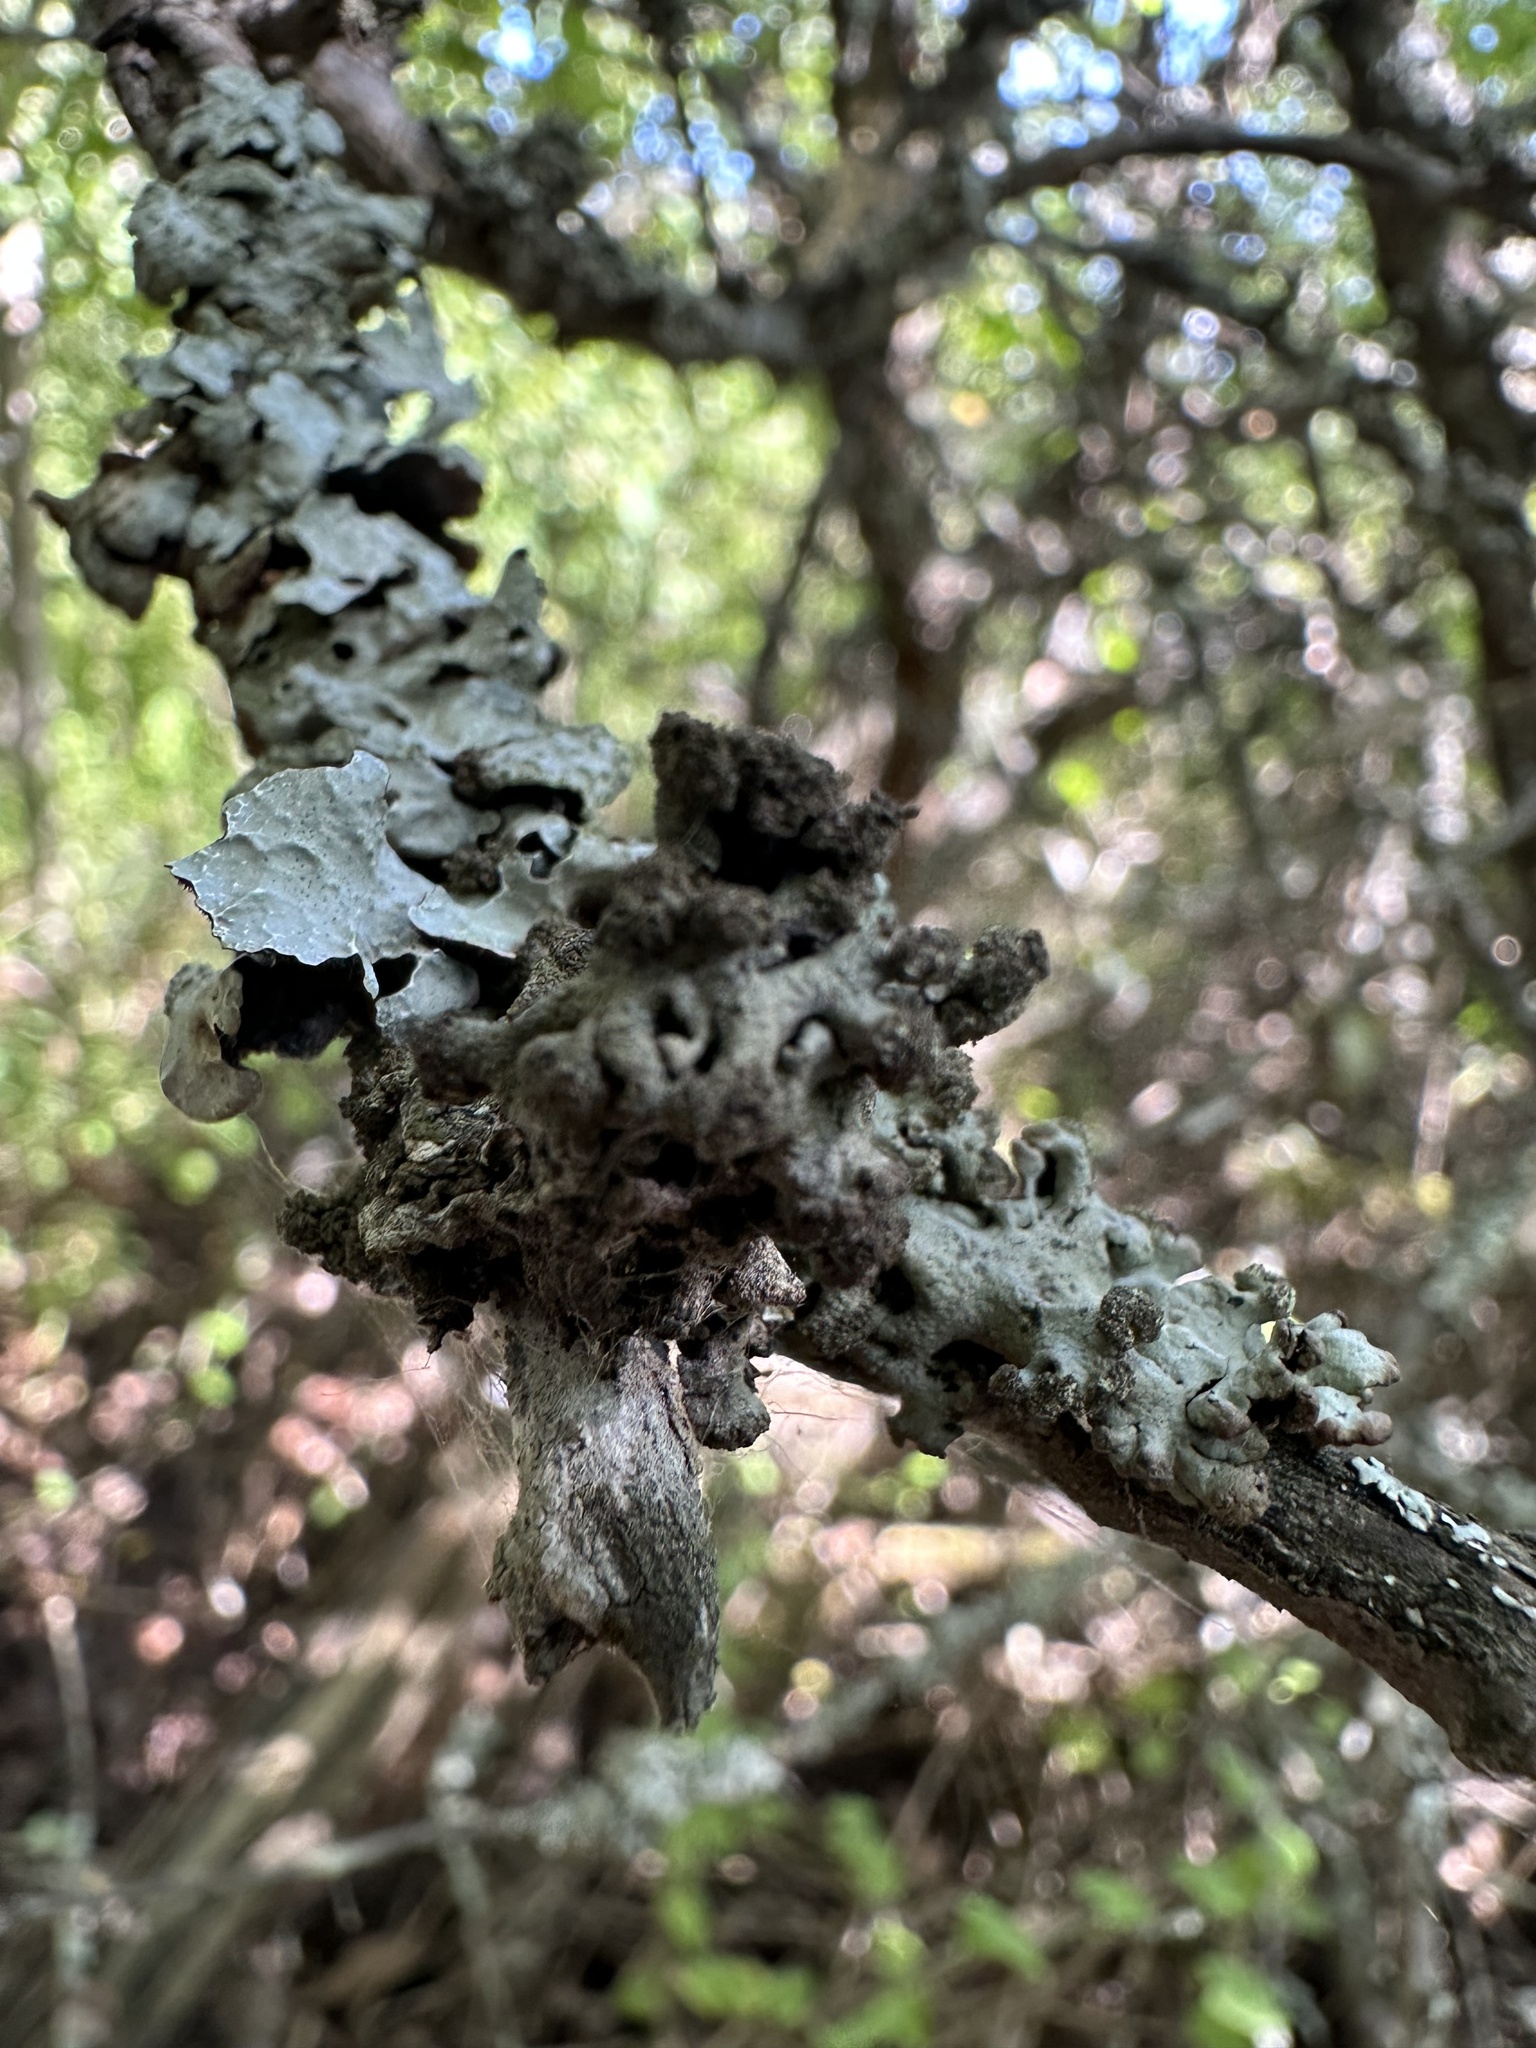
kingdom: Fungi
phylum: Ascomycota
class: Lecanoromycetes
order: Lecanorales
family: Parmeliaceae
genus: Hypogymnia
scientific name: Hypogymnia tubulosa
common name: Powder-headed tube lichen
